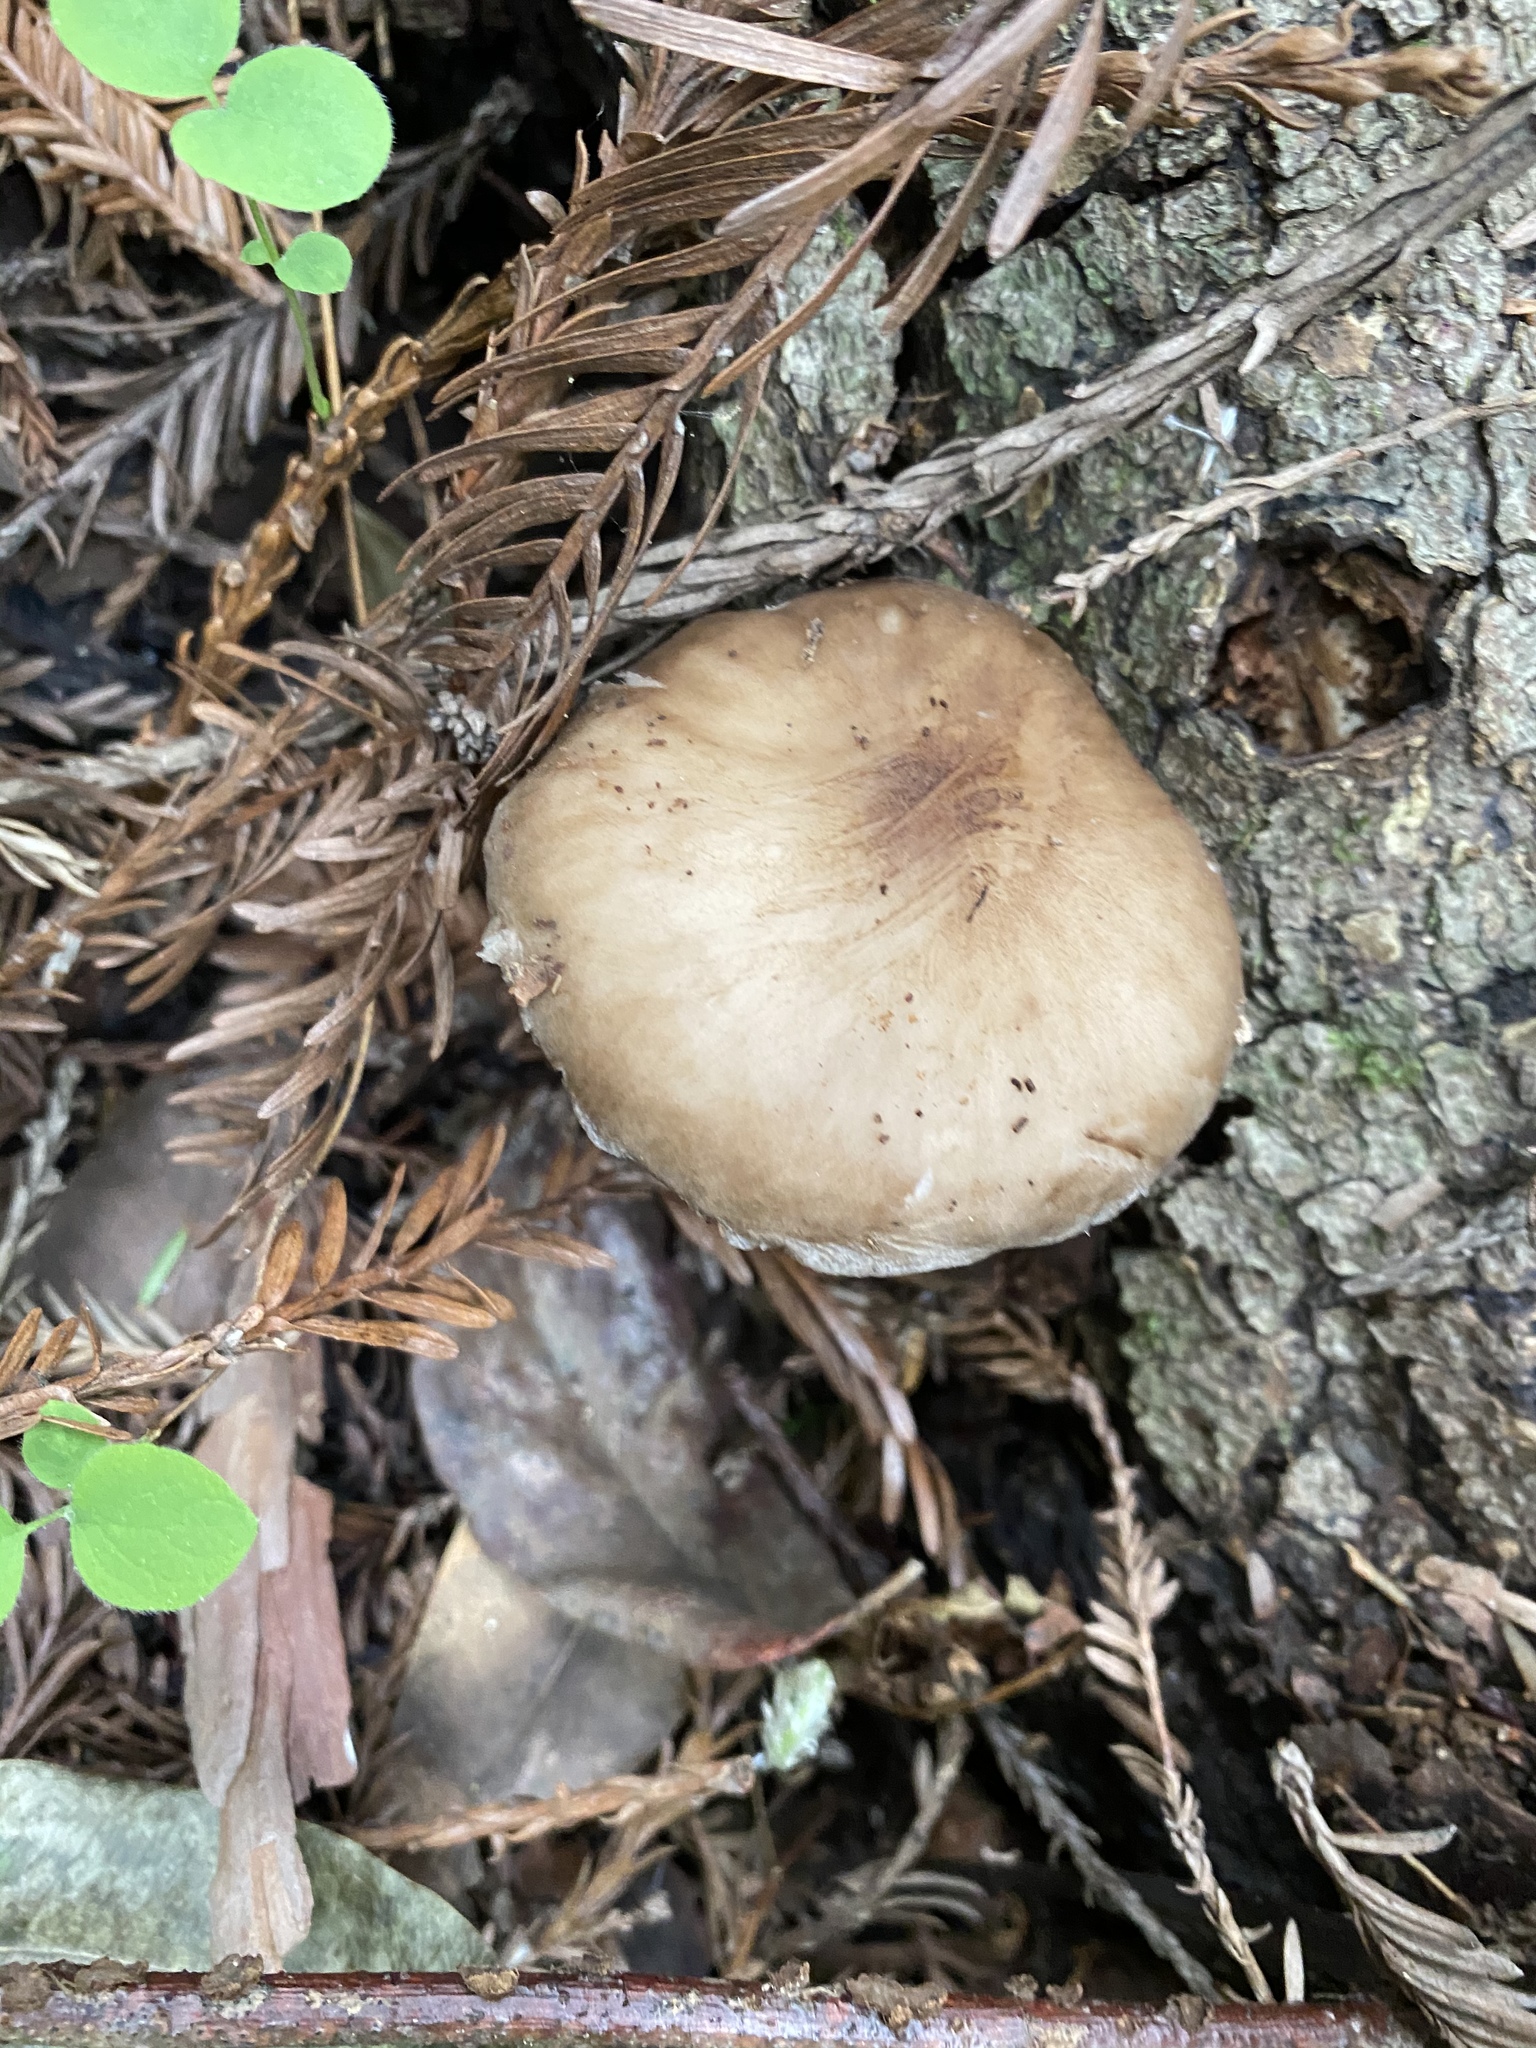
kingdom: Fungi
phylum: Basidiomycota
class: Agaricomycetes
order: Agaricales
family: Pluteaceae
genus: Pluteus
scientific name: Pluteus cervinus
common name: Deer shield
